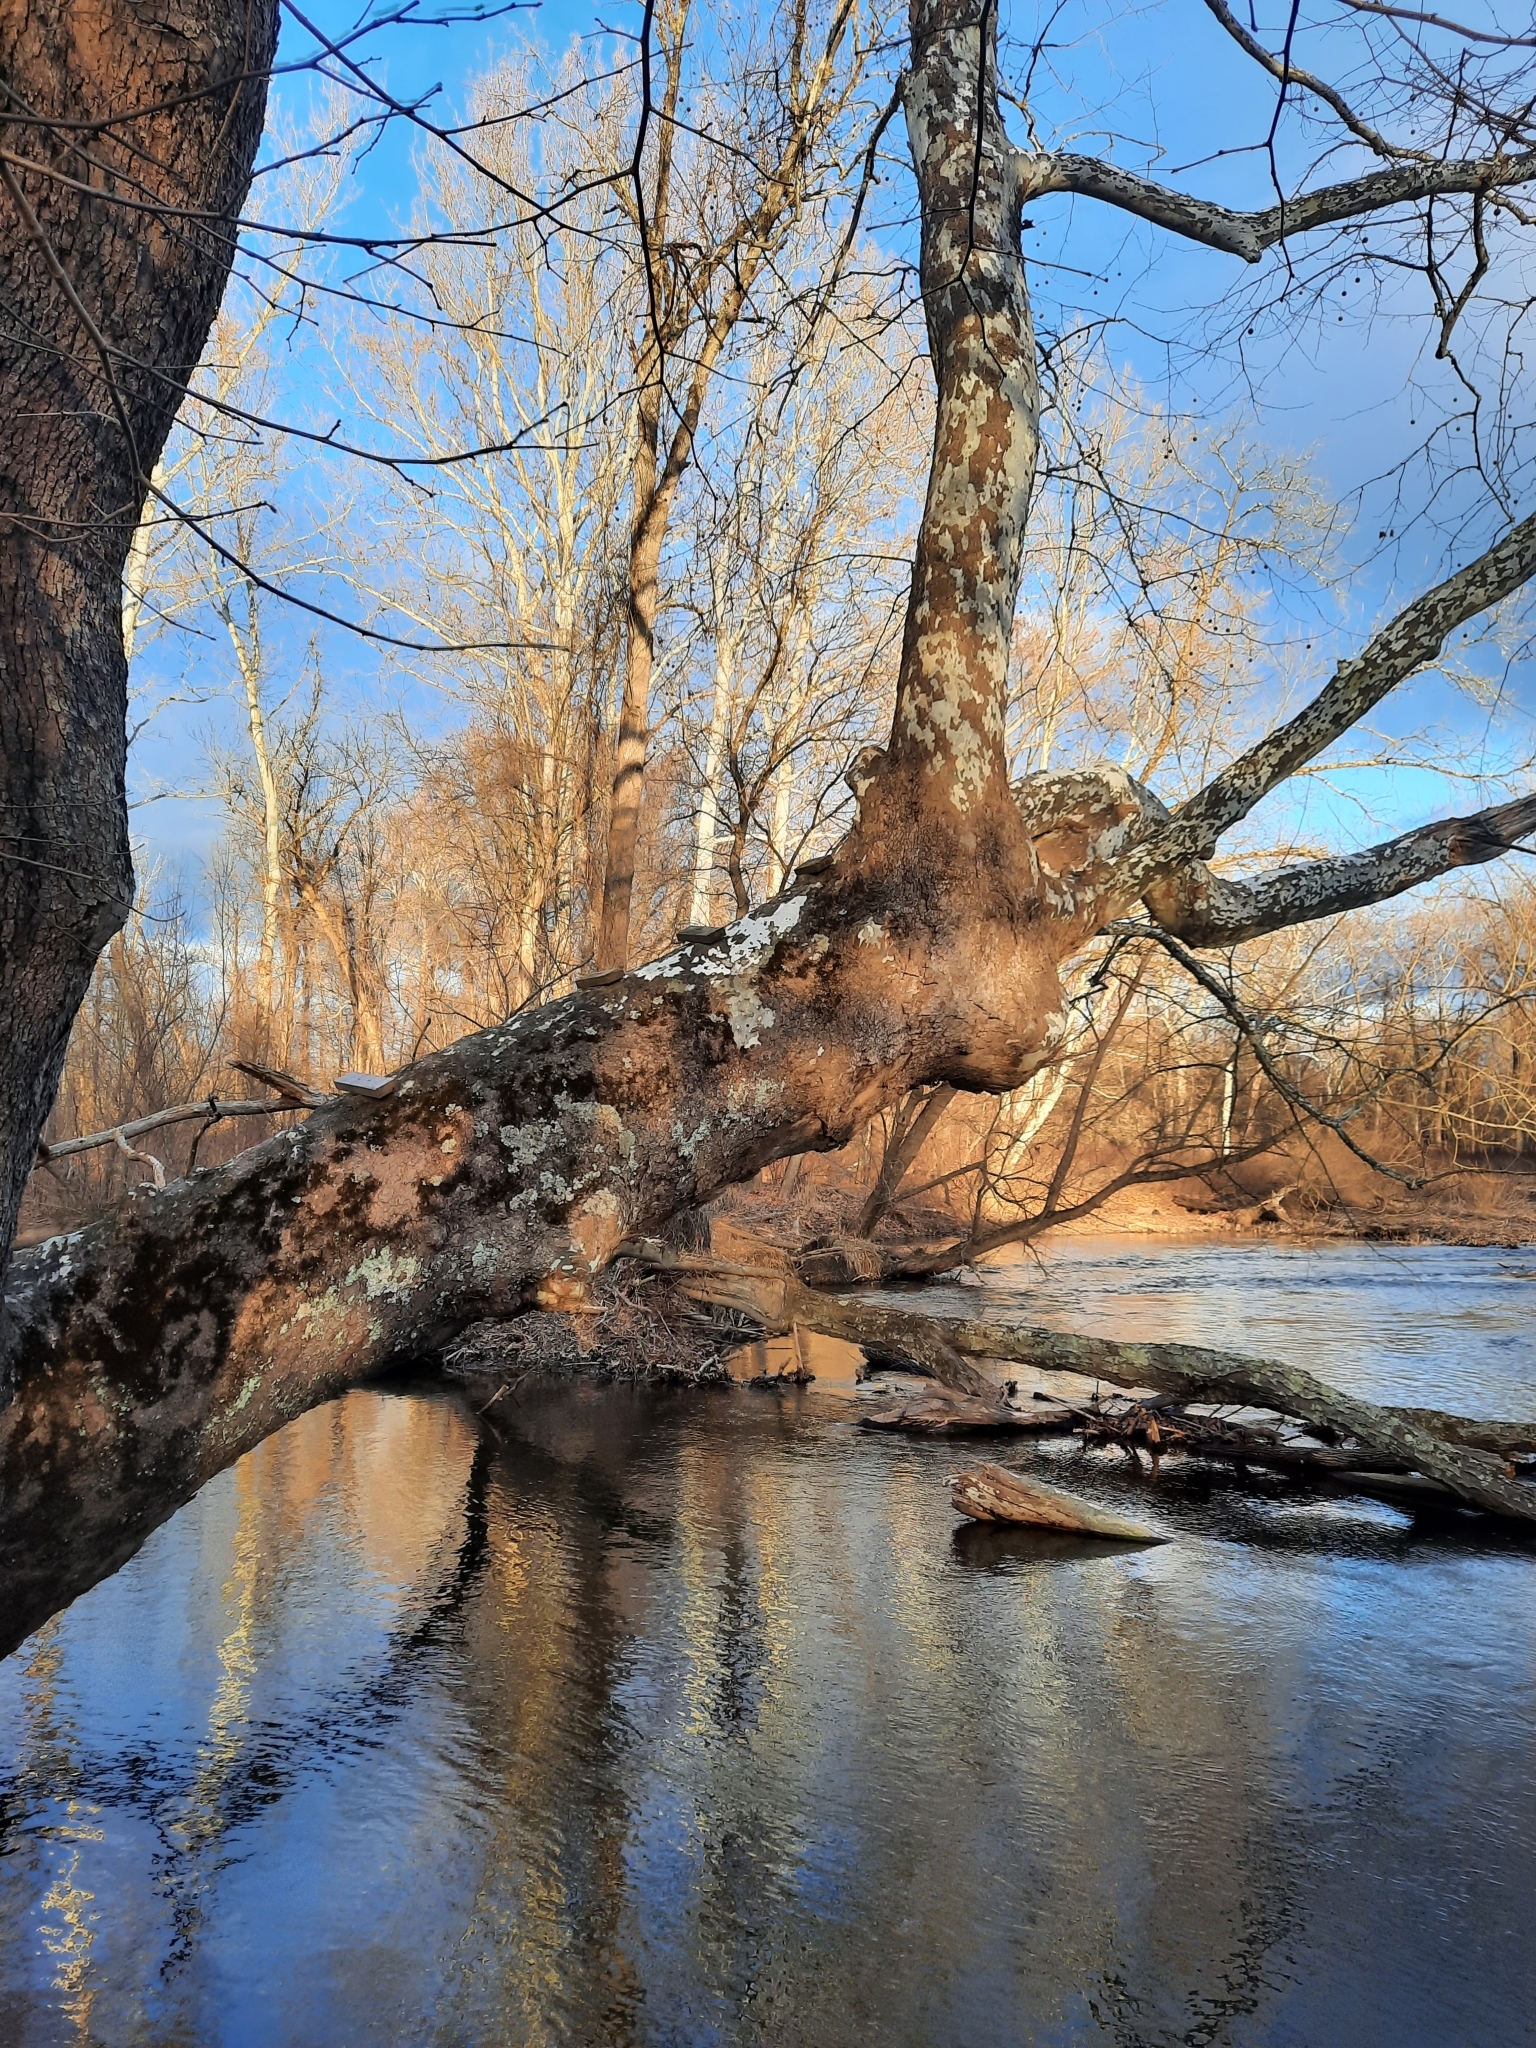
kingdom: Plantae
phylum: Tracheophyta
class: Magnoliopsida
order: Proteales
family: Platanaceae
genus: Platanus
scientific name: Platanus occidentalis
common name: American sycamore
